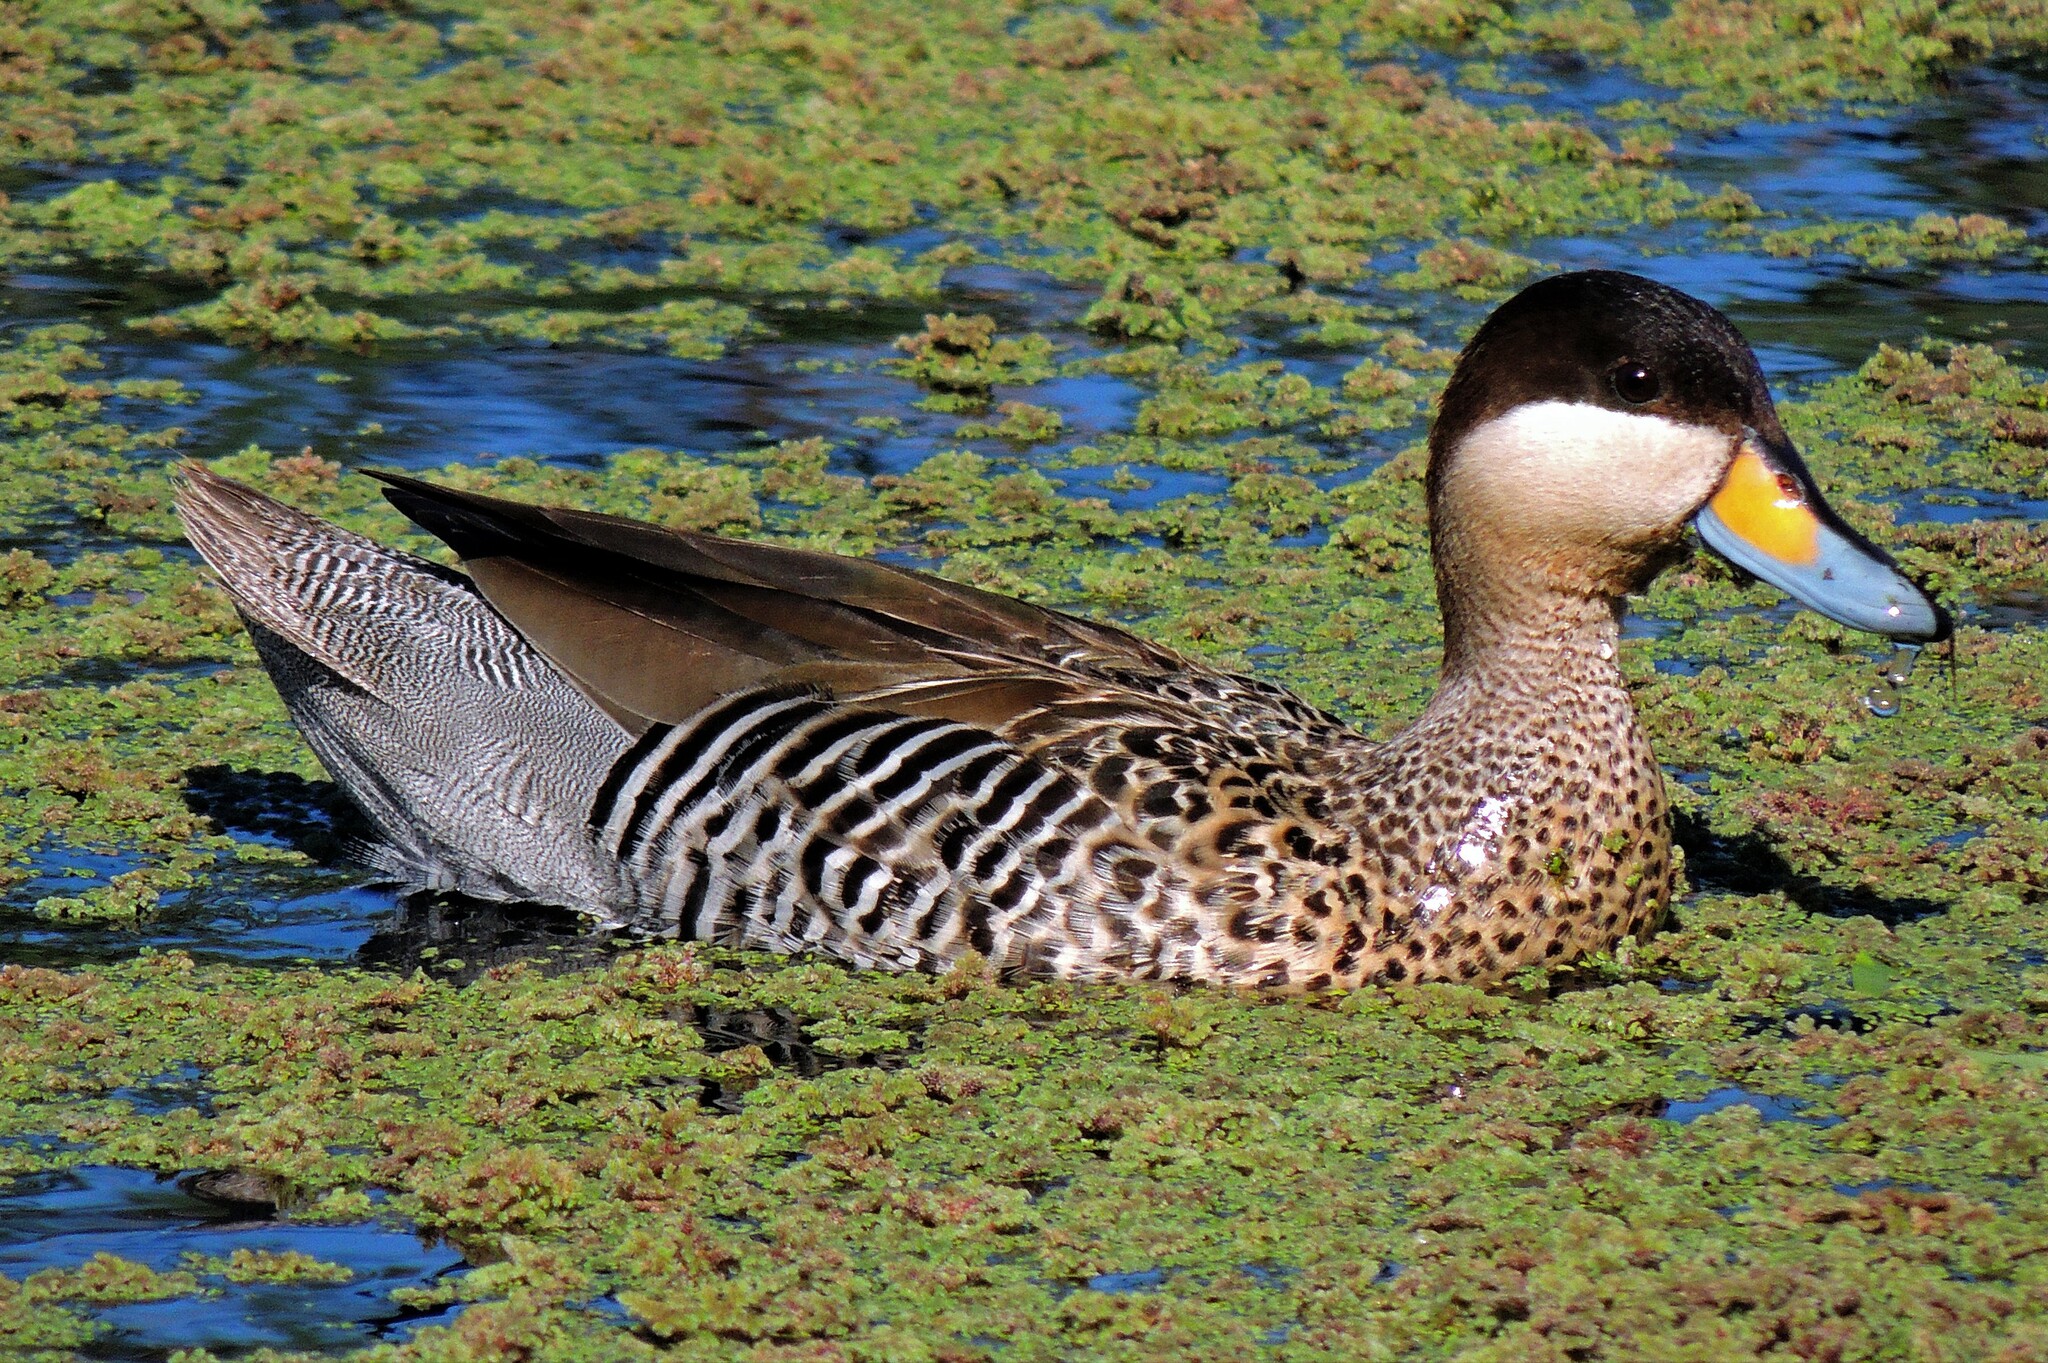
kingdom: Animalia
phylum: Chordata
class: Aves
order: Anseriformes
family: Anatidae
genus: Spatula
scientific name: Spatula versicolor
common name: Silver teal
